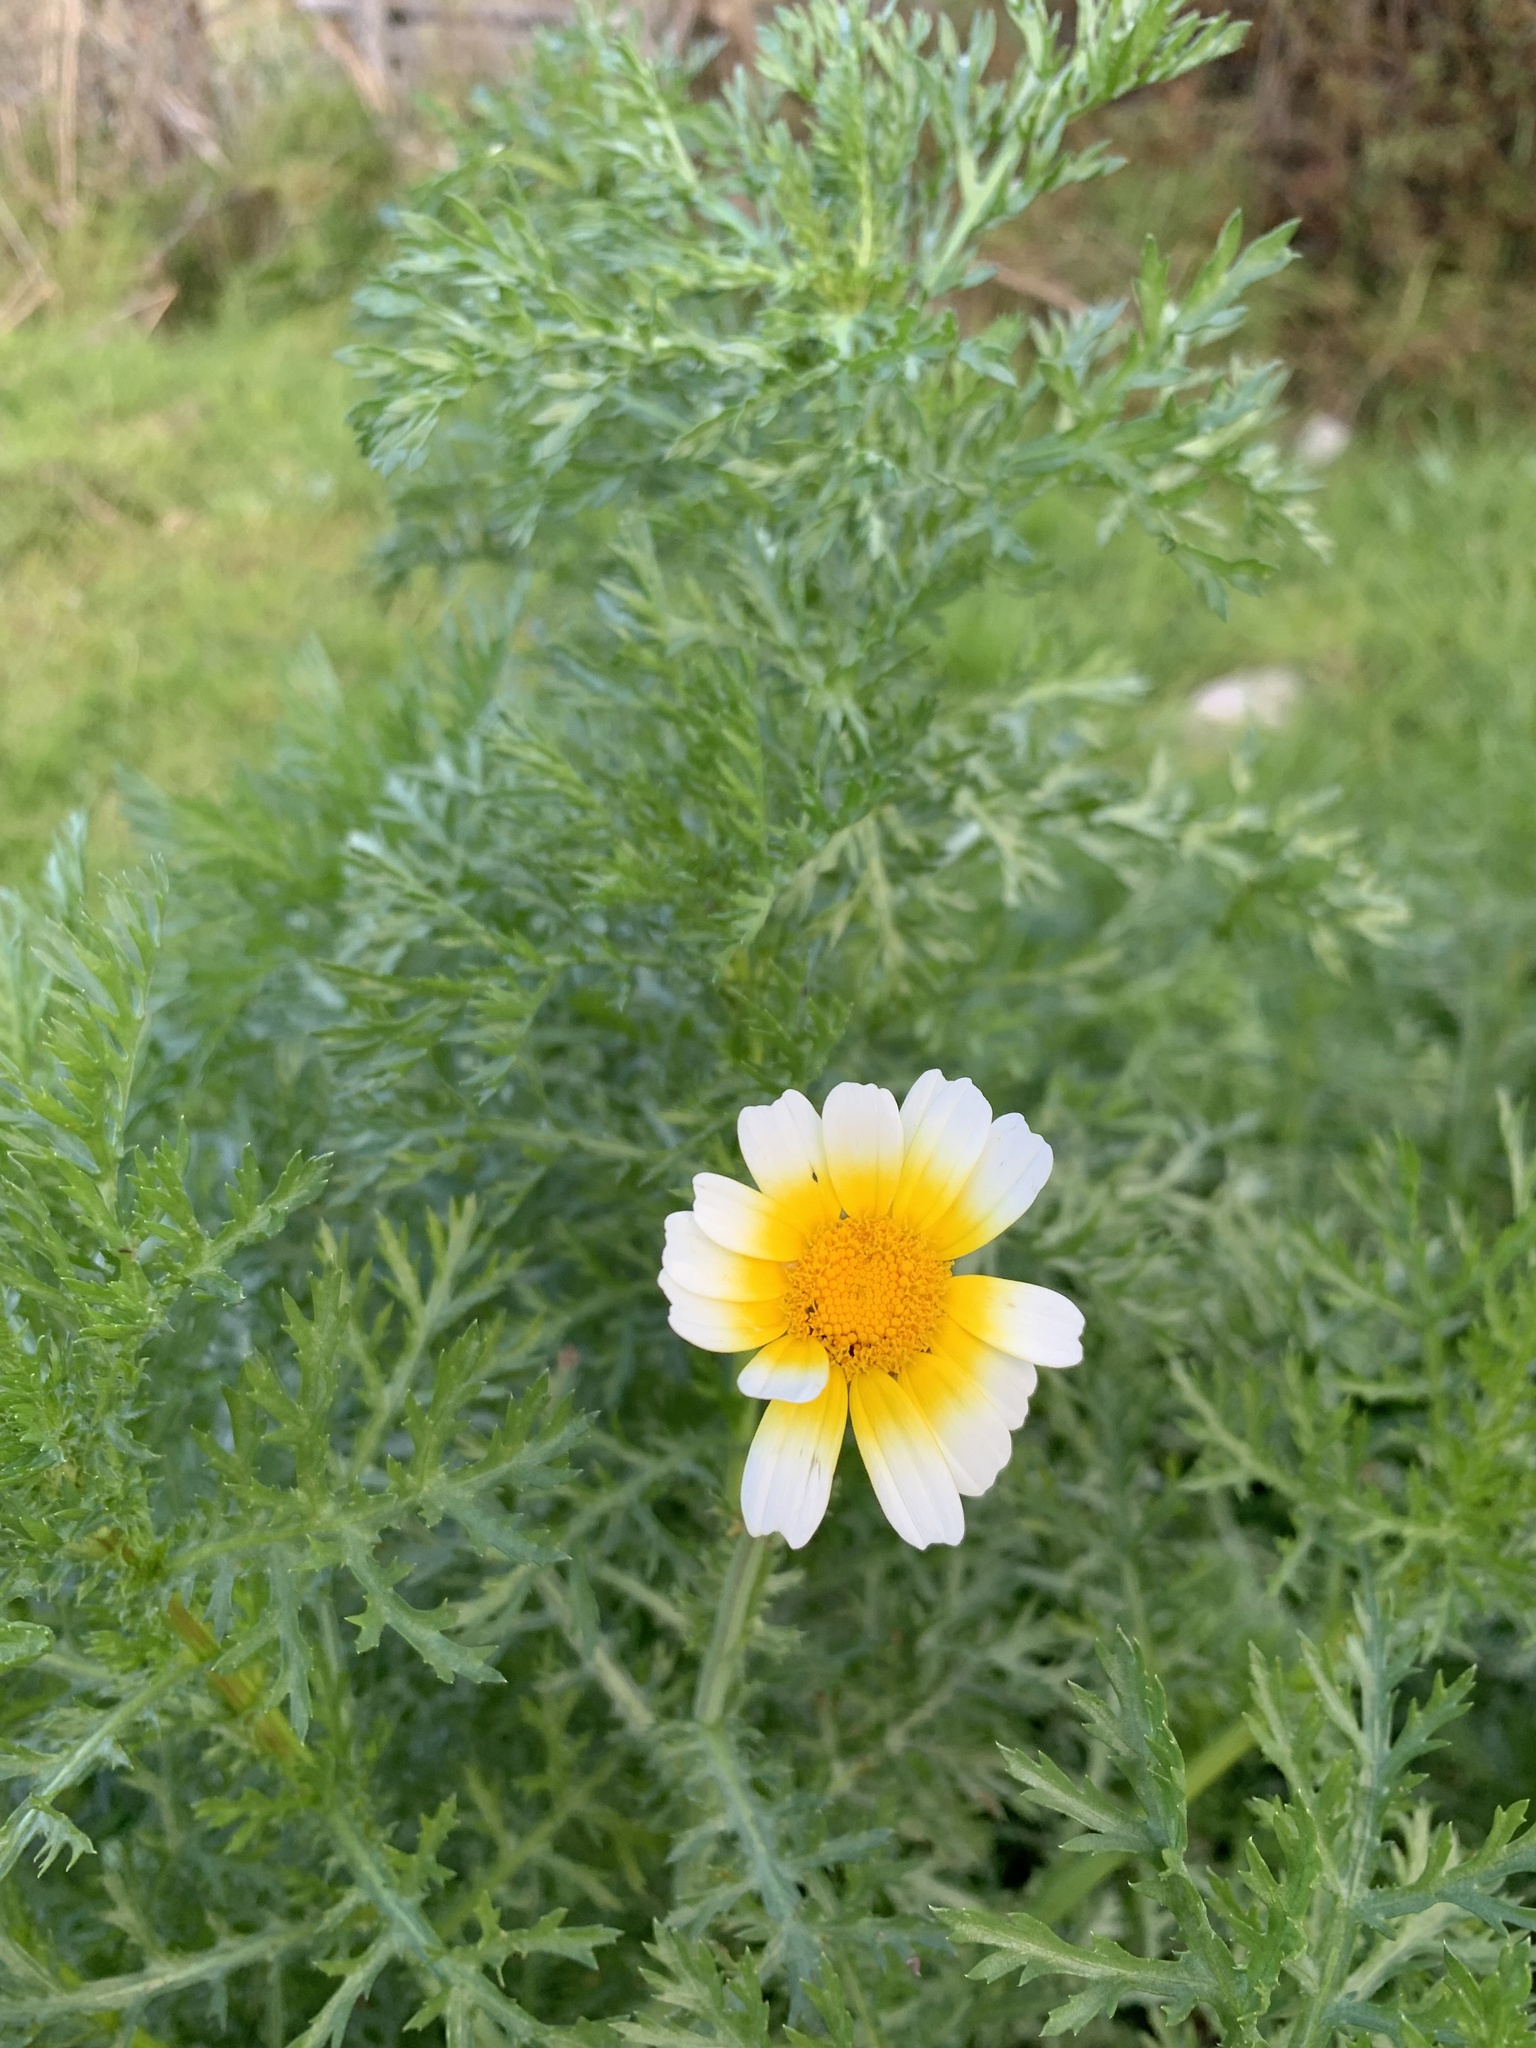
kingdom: Plantae
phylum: Tracheophyta
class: Magnoliopsida
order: Asterales
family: Asteraceae
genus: Glebionis
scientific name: Glebionis coronaria
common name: Crowndaisy
